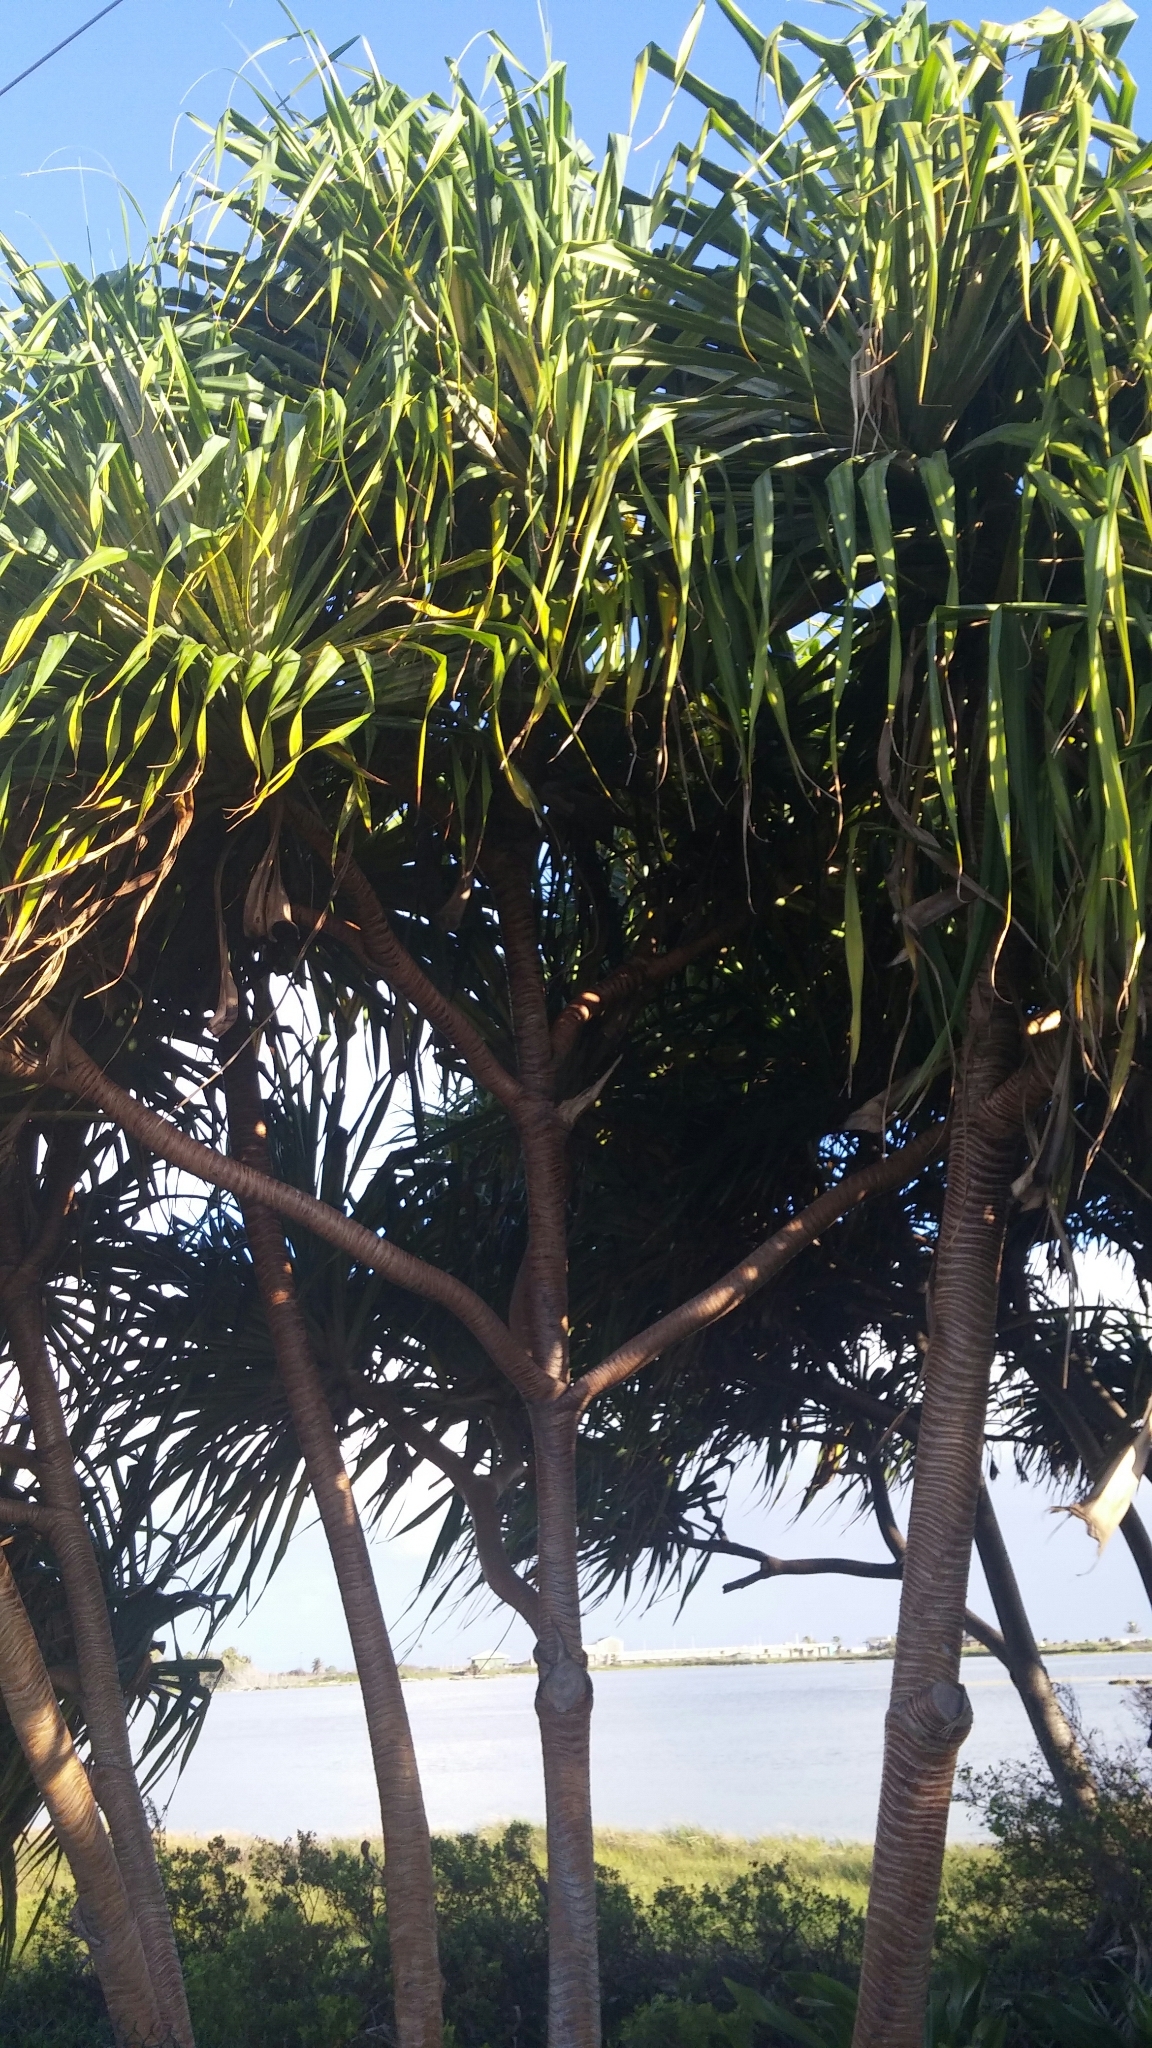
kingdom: Plantae
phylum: Tracheophyta
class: Liliopsida
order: Pandanales
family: Pandanaceae
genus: Pandanus
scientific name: Pandanus tectorius
